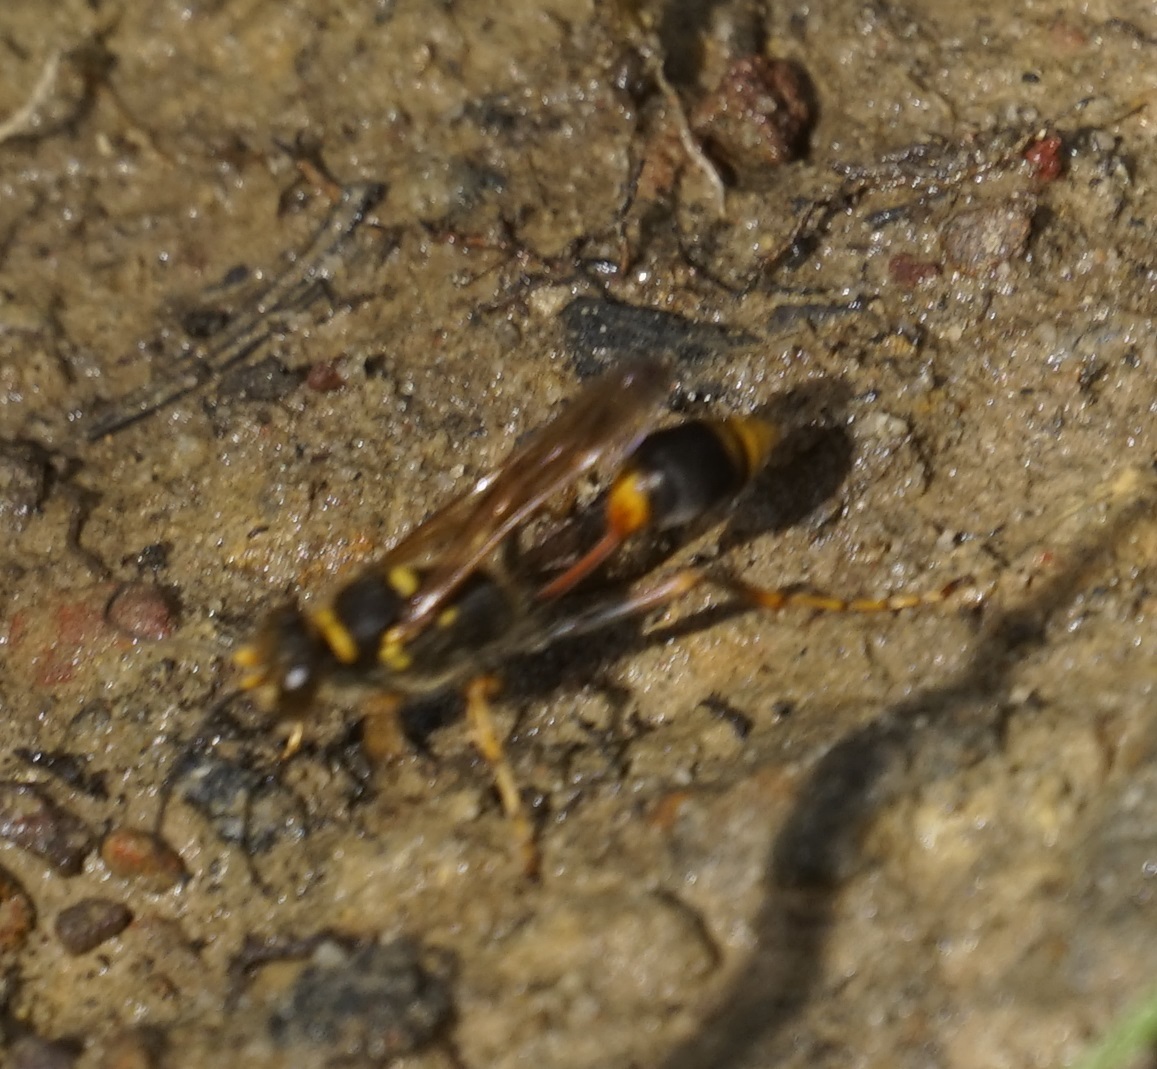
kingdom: Animalia
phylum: Arthropoda
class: Insecta
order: Hymenoptera
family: Sphecidae
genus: Sceliphron
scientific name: Sceliphron formosum
